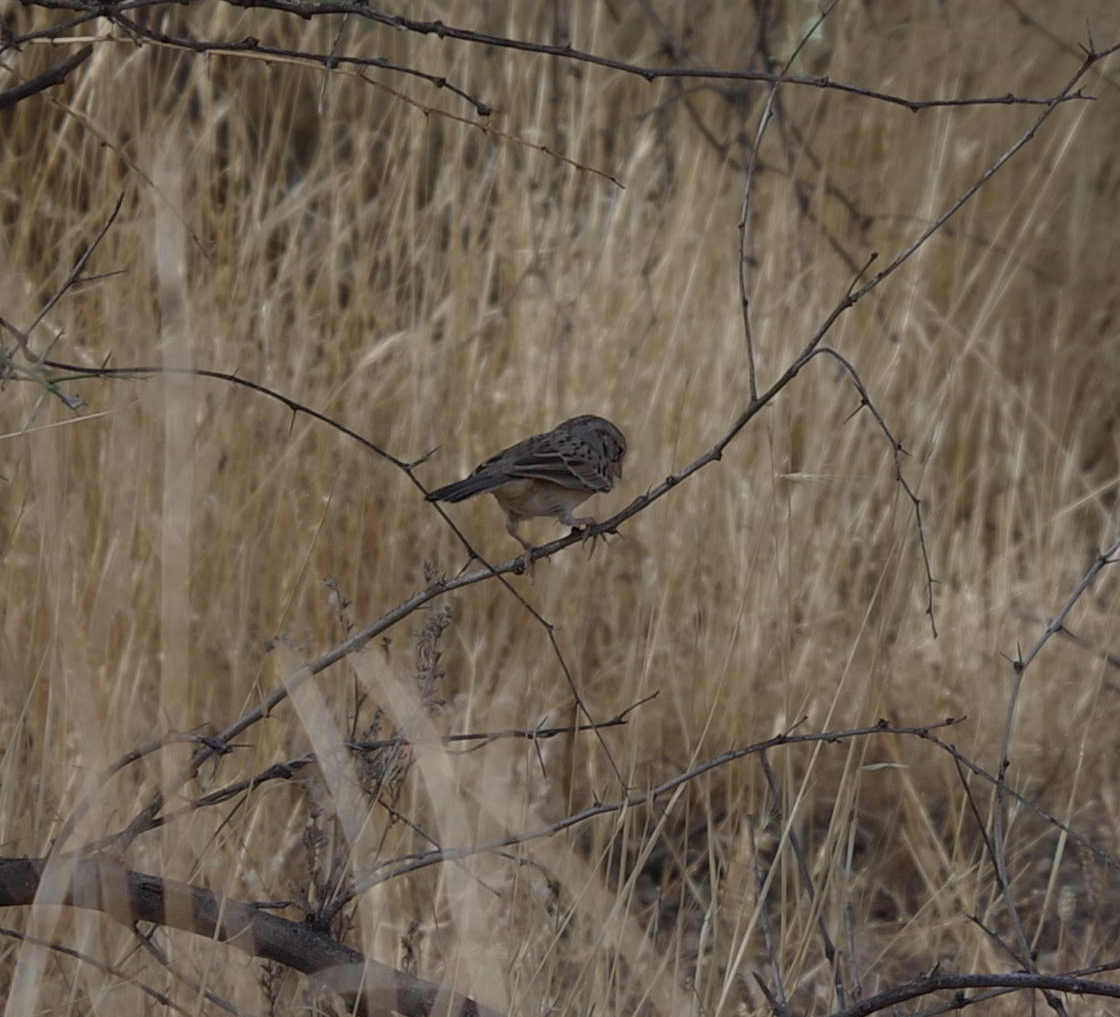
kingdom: Animalia
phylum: Chordata
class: Aves
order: Passeriformes
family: Passerellidae
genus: Peucaea
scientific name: Peucaea carpalis
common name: Rufous-winged sparrow
